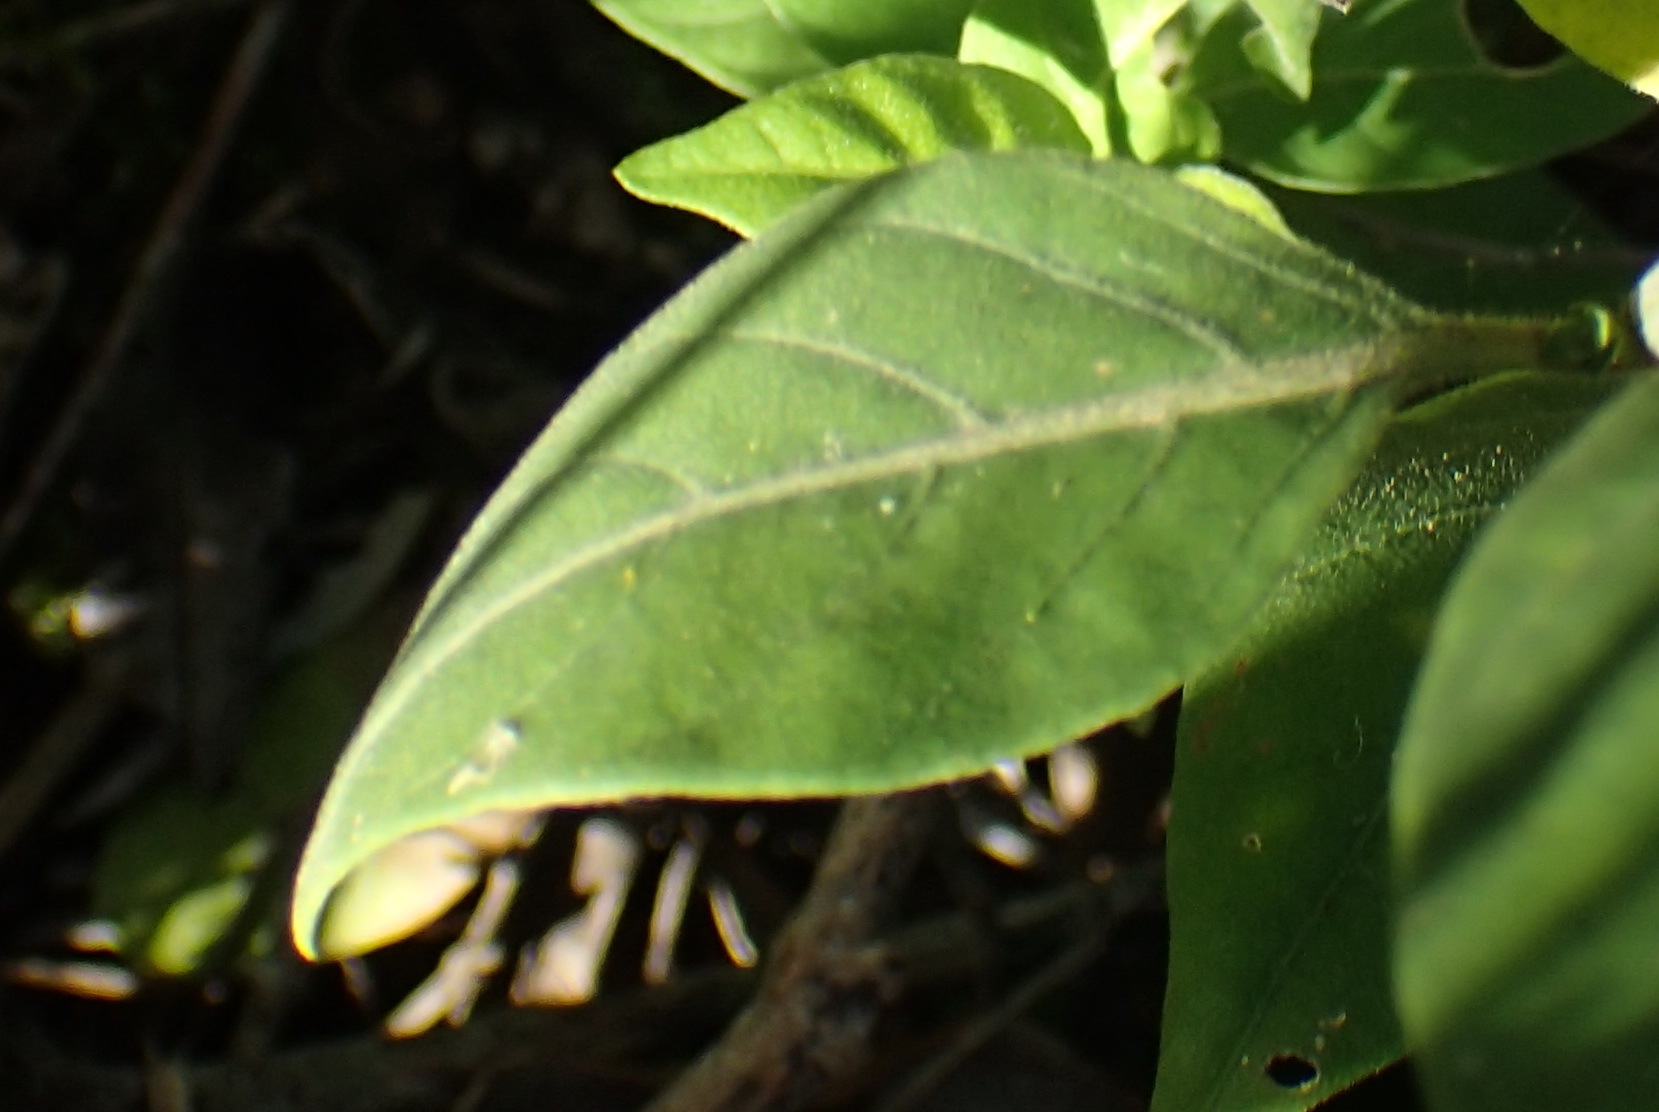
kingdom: Plantae
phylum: Tracheophyta
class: Magnoliopsida
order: Lamiales
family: Acanthaceae
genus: Hypoestes
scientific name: Hypoestes forskaolii
